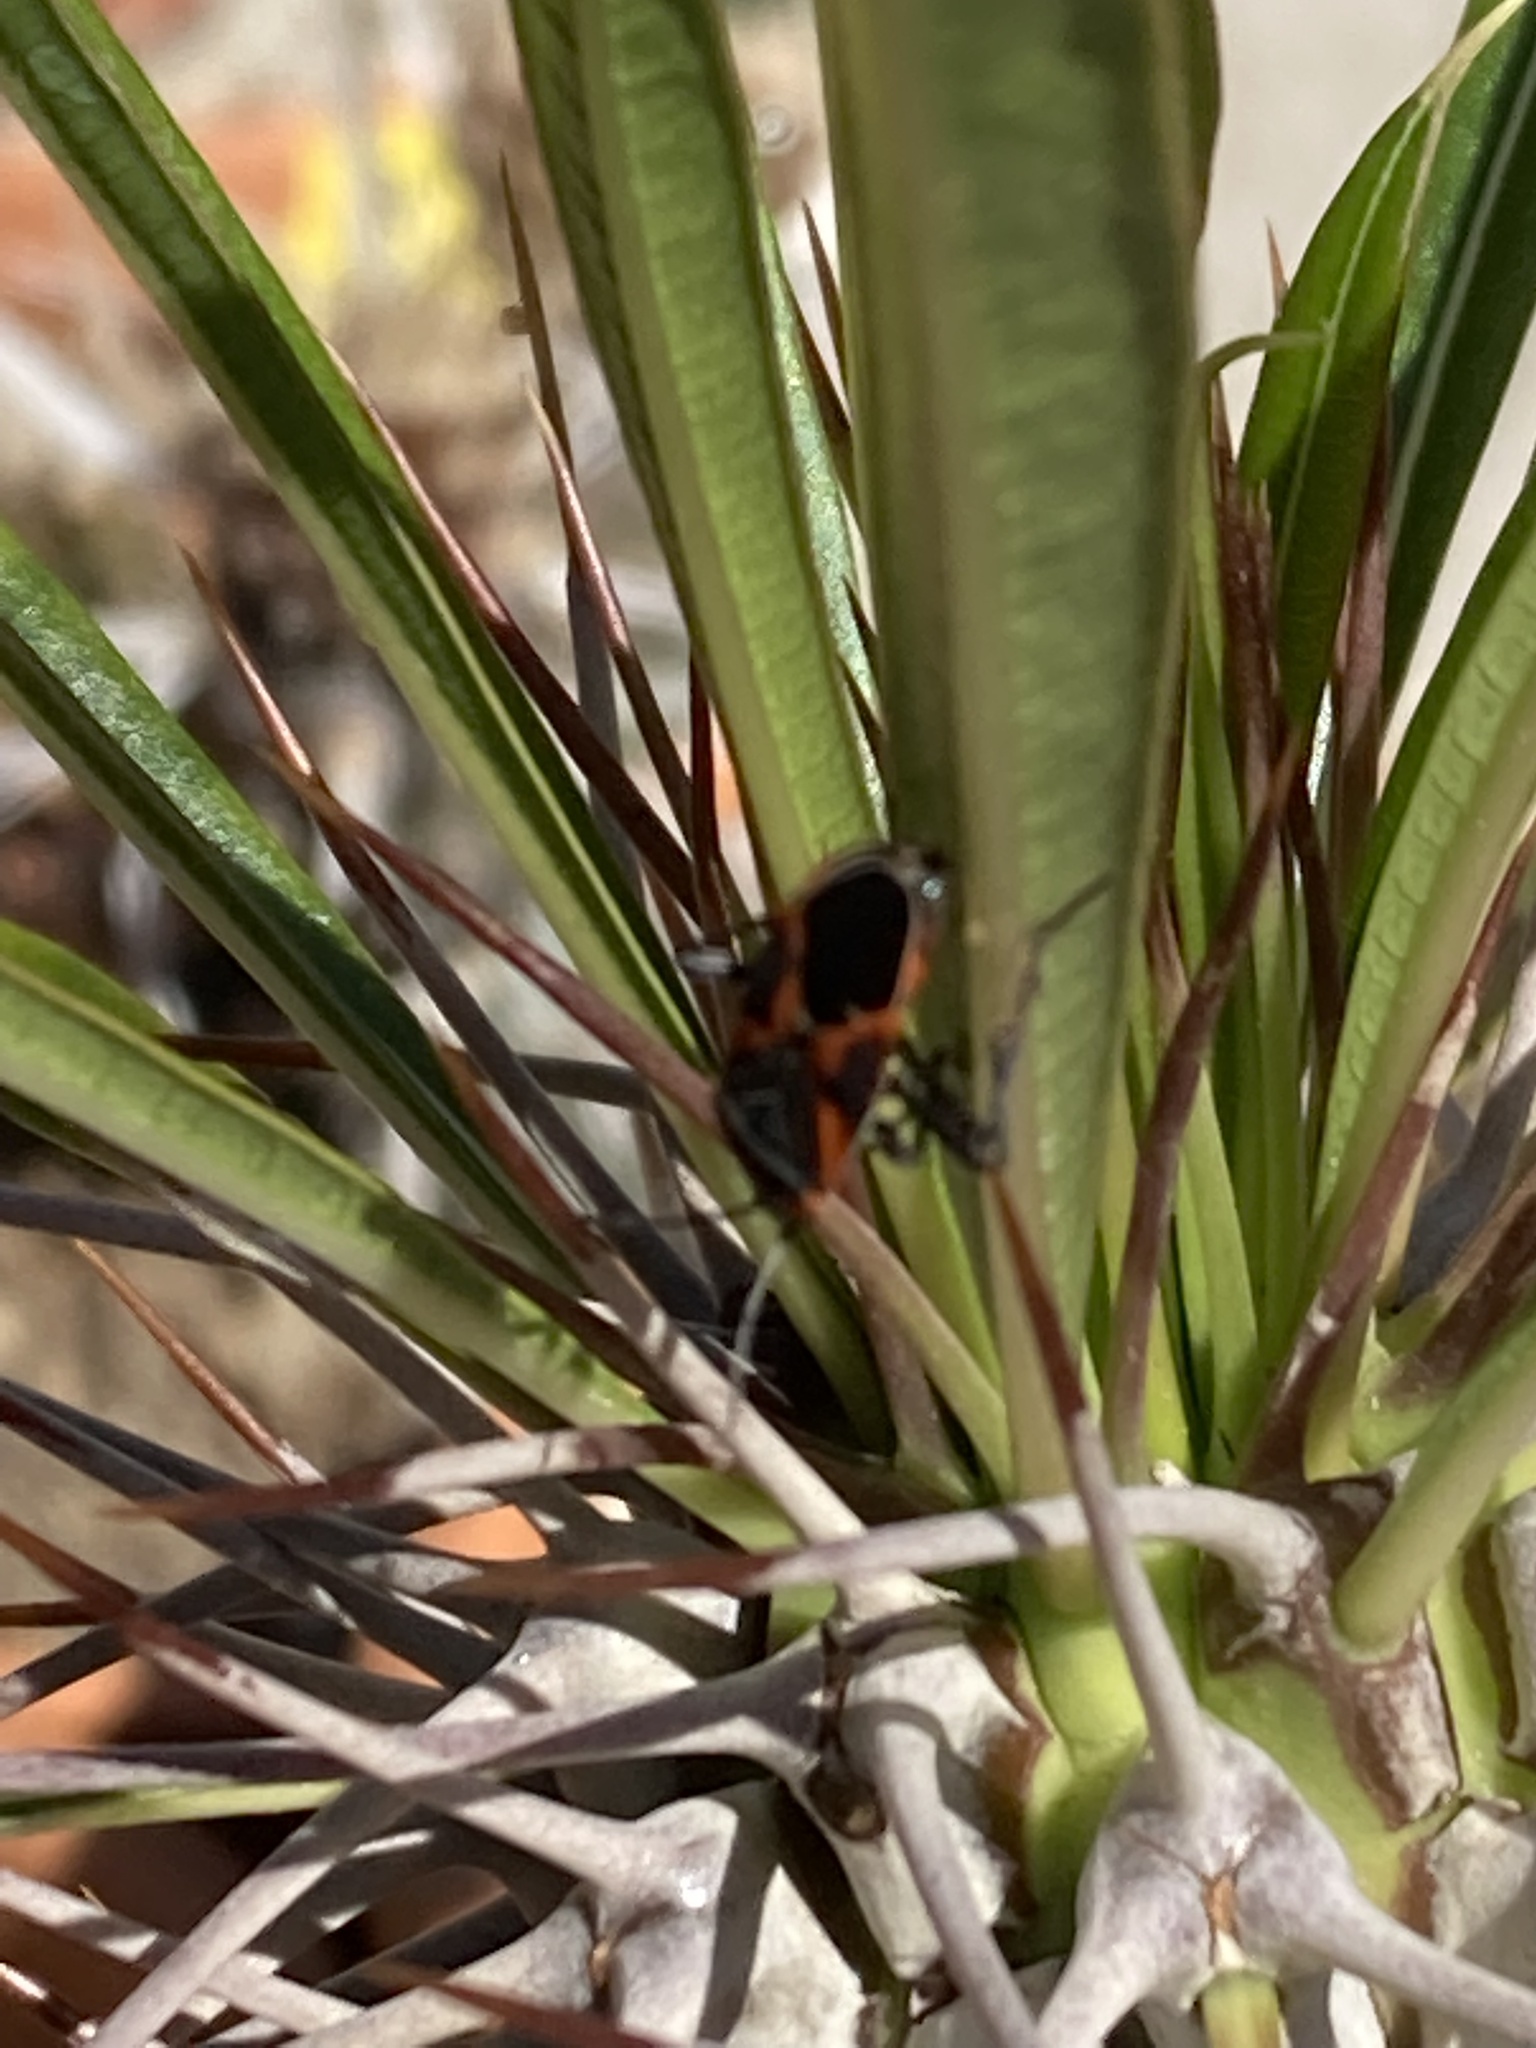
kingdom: Animalia
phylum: Arthropoda
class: Insecta
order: Hemiptera
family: Lygaeidae
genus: Lygaeus
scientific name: Lygaeus kalmii
